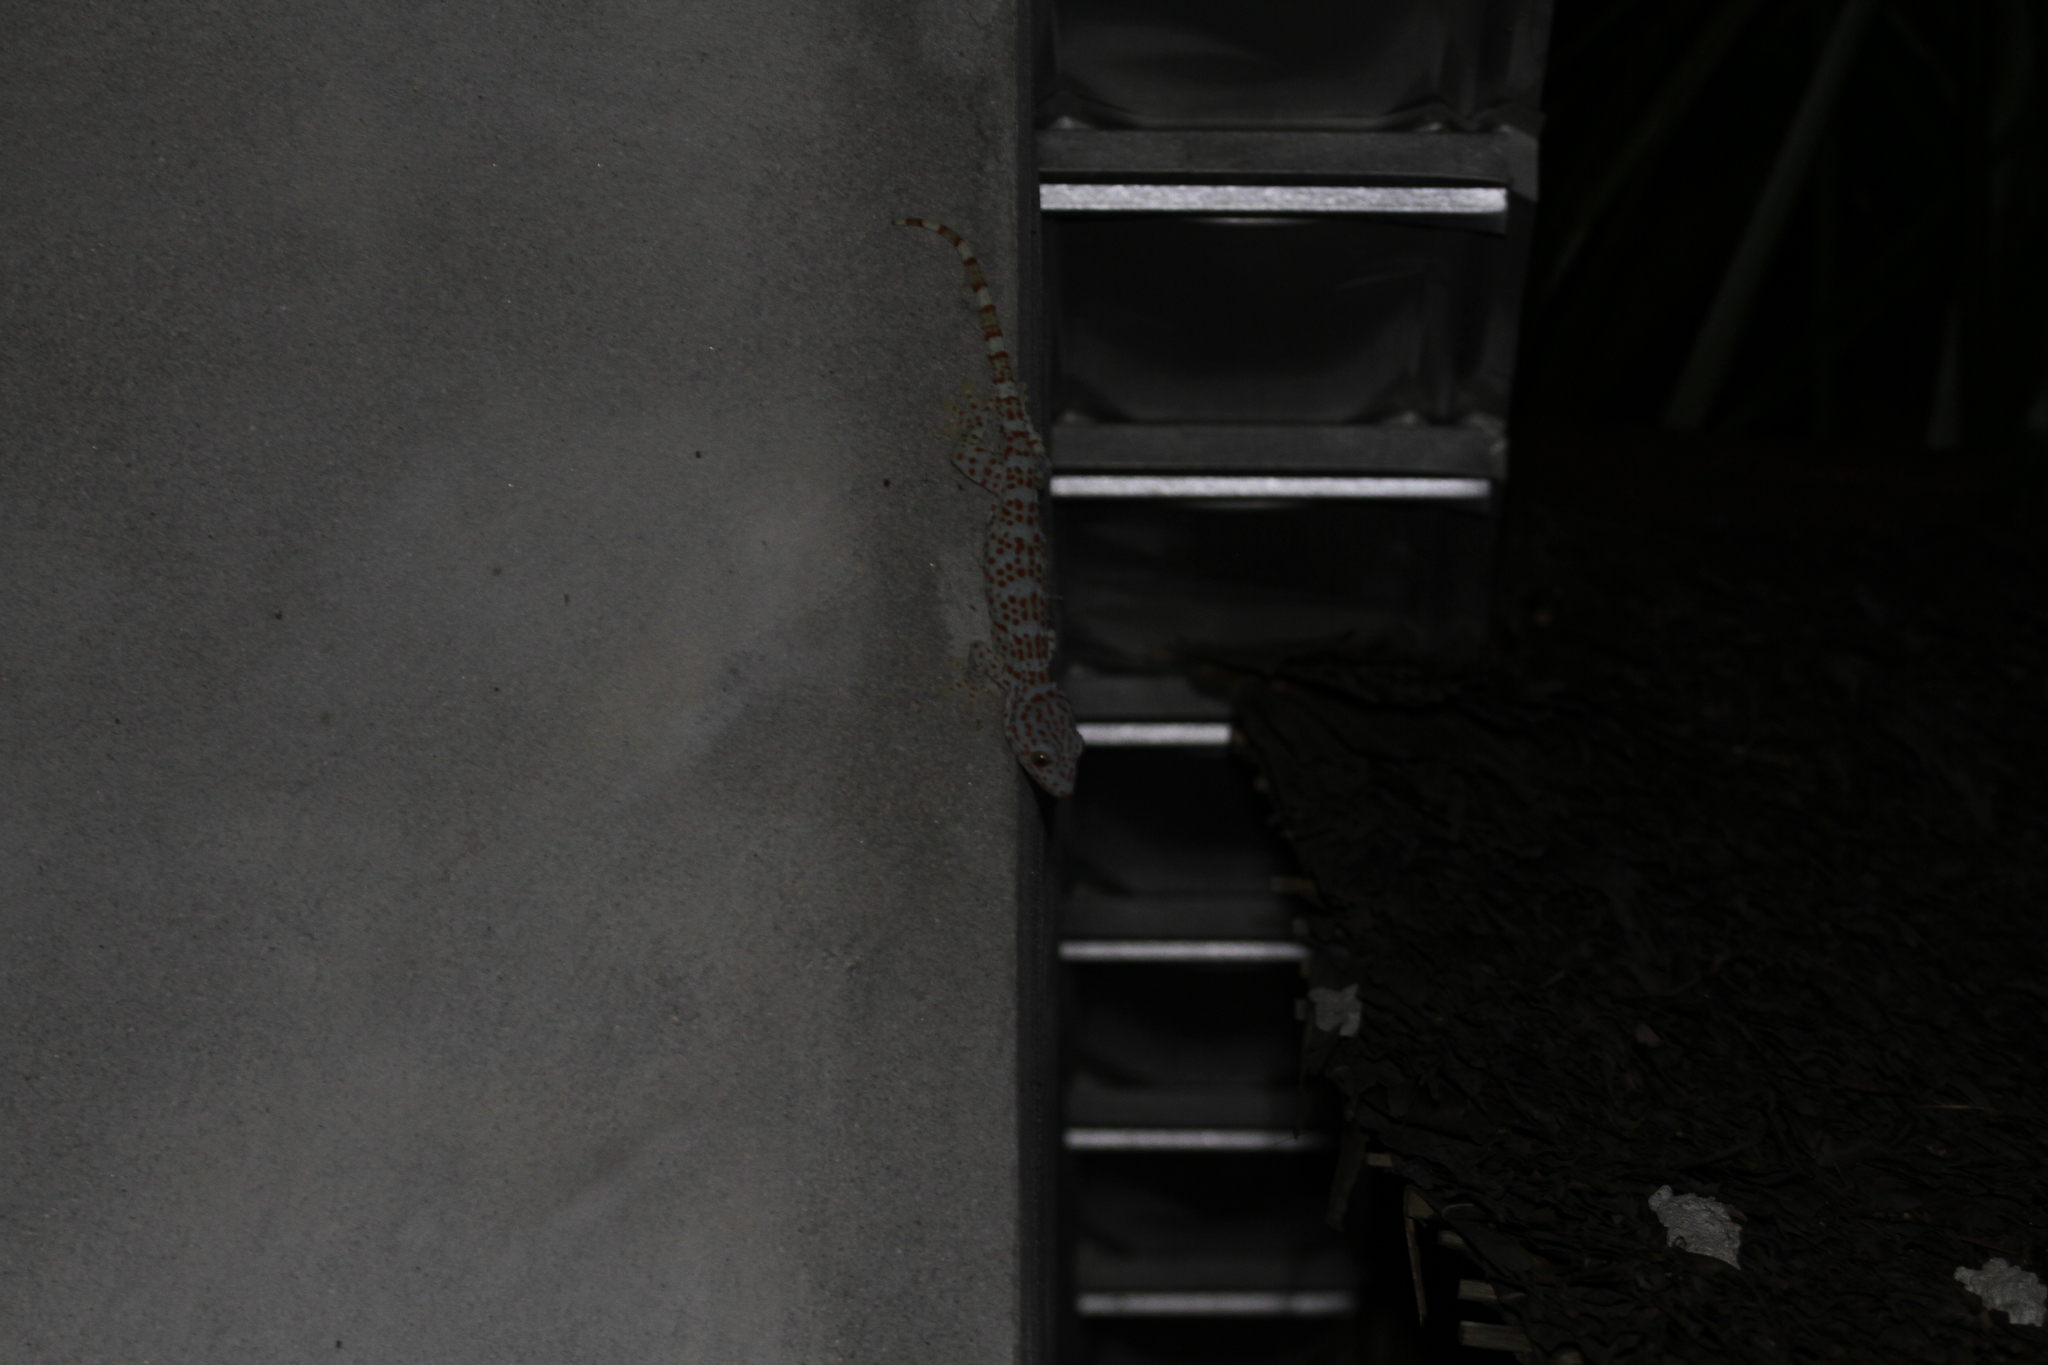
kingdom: Animalia
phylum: Chordata
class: Squamata
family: Gekkonidae
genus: Gekko
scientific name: Gekko gecko
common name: Tokay gecko
